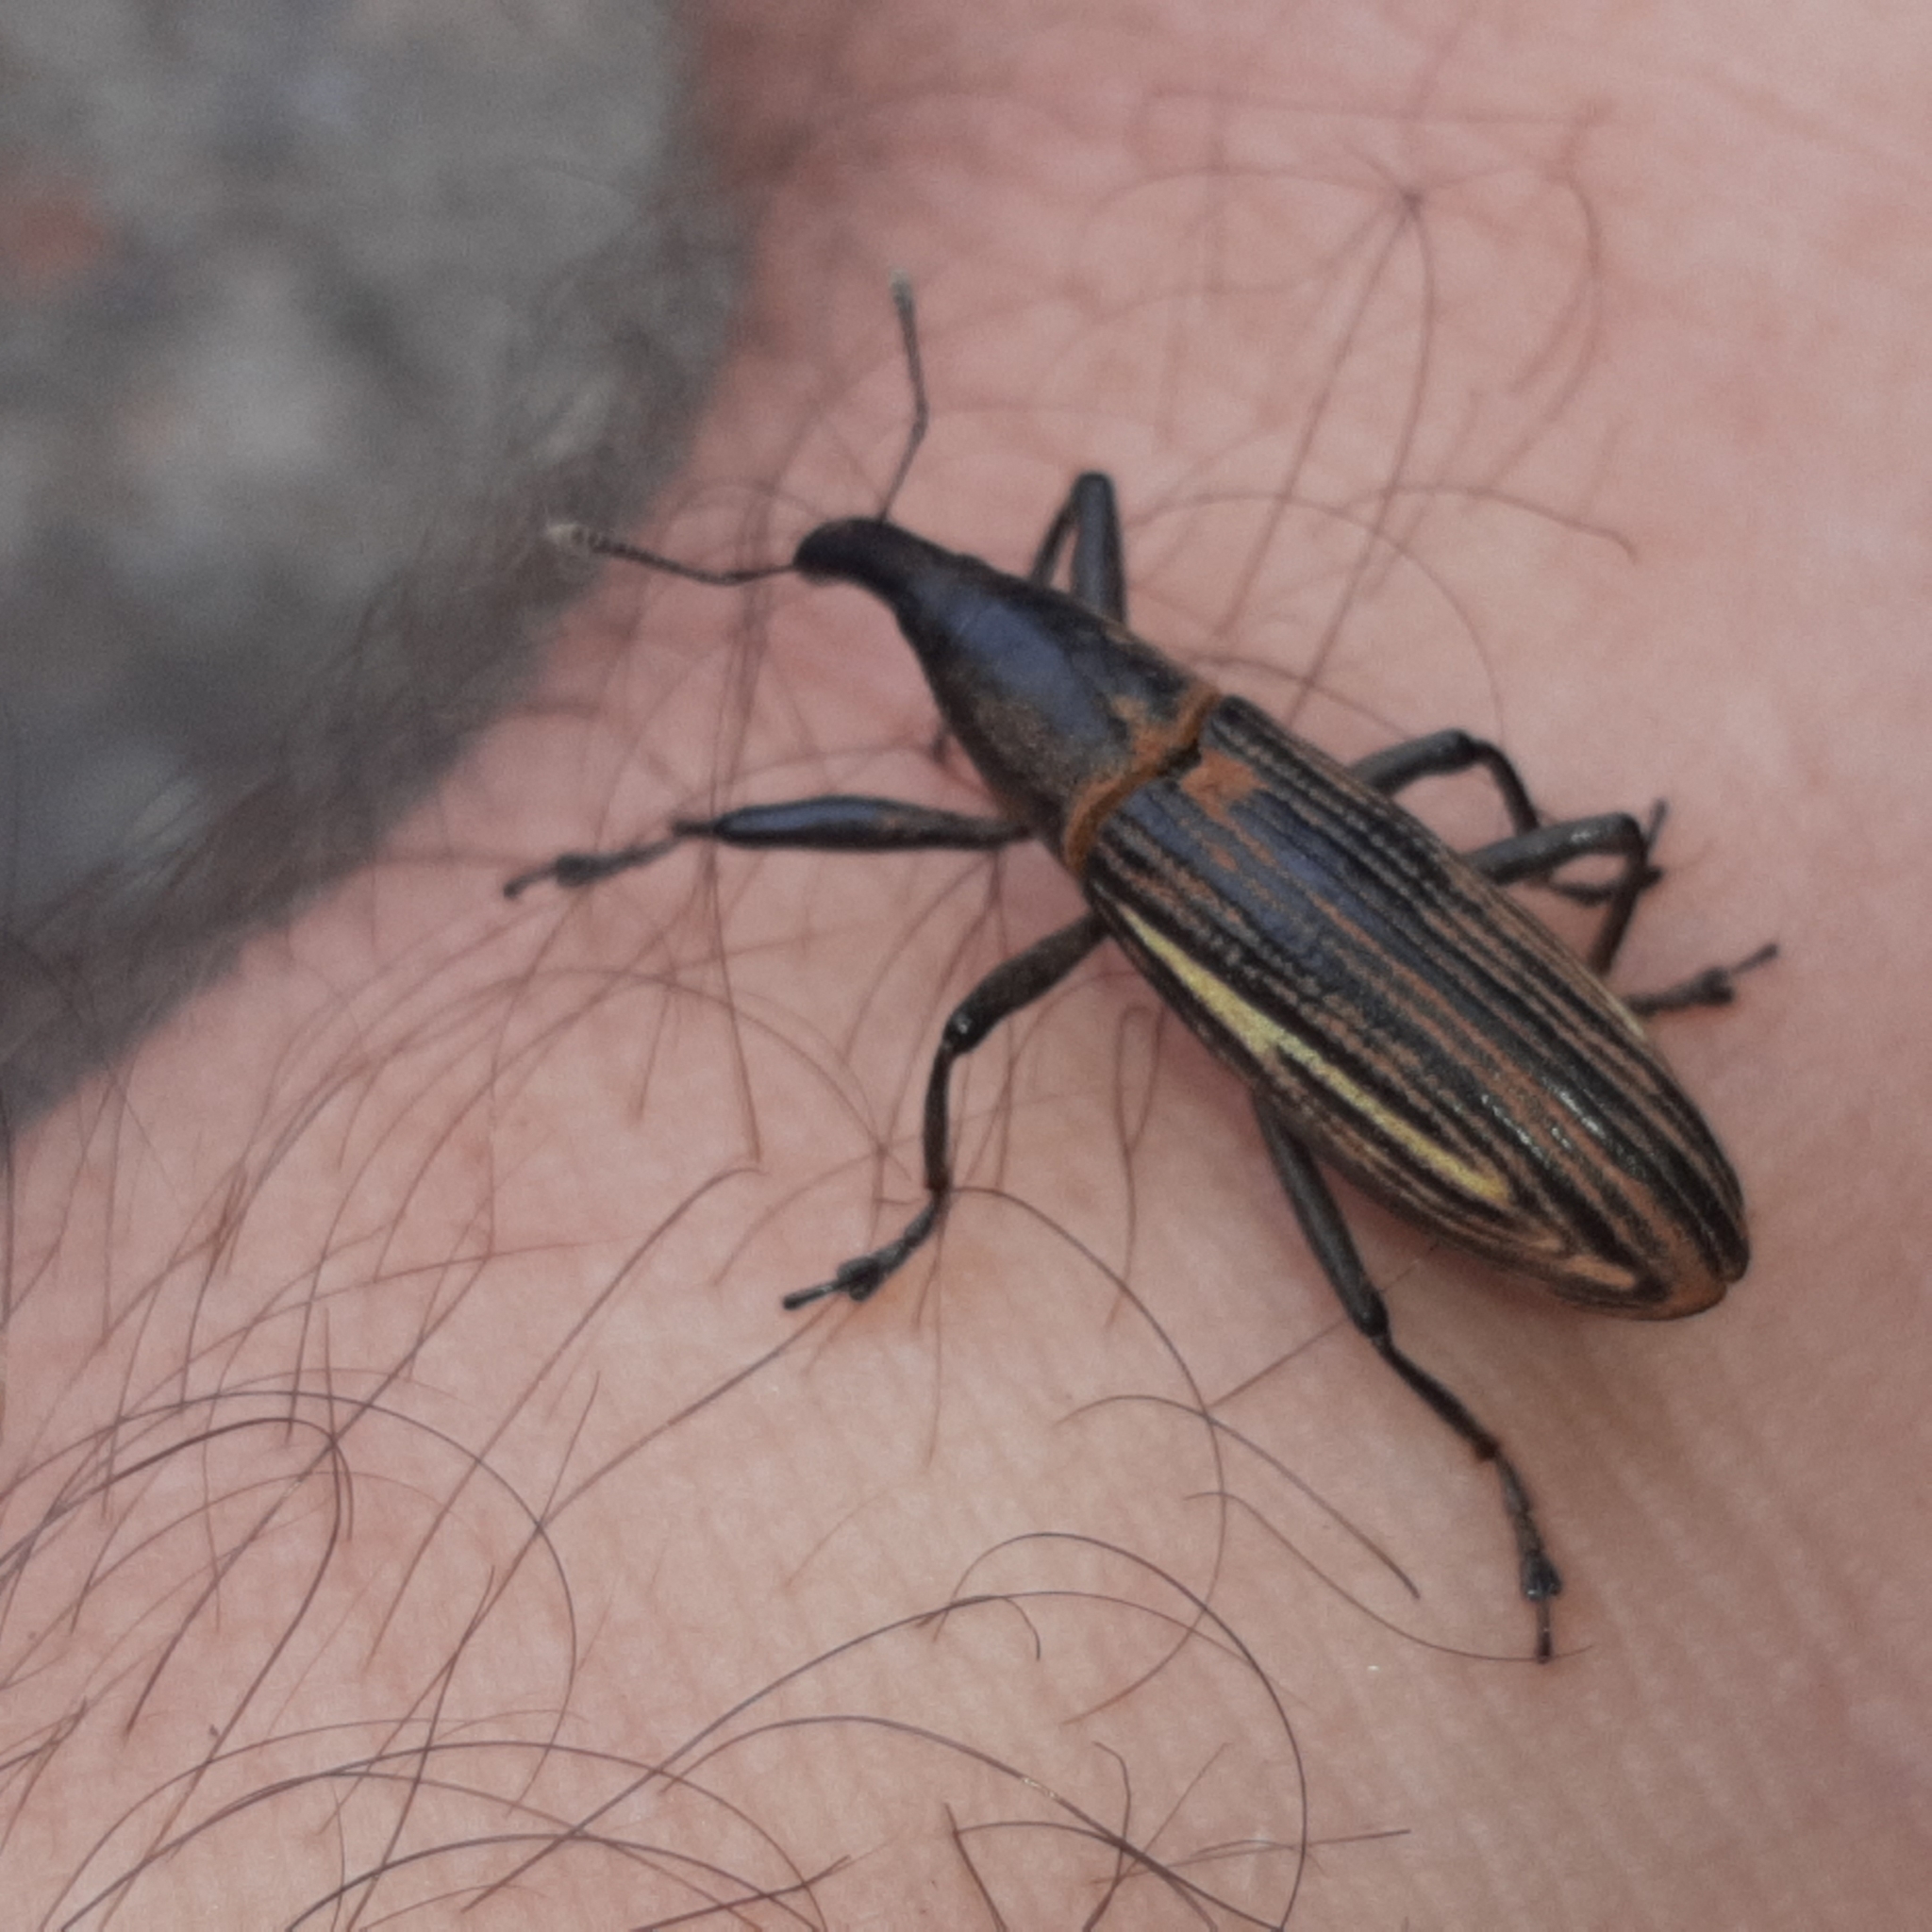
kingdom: Animalia
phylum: Arthropoda
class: Insecta
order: Coleoptera
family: Curculionidae
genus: Lixus
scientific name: Lixus apterus
